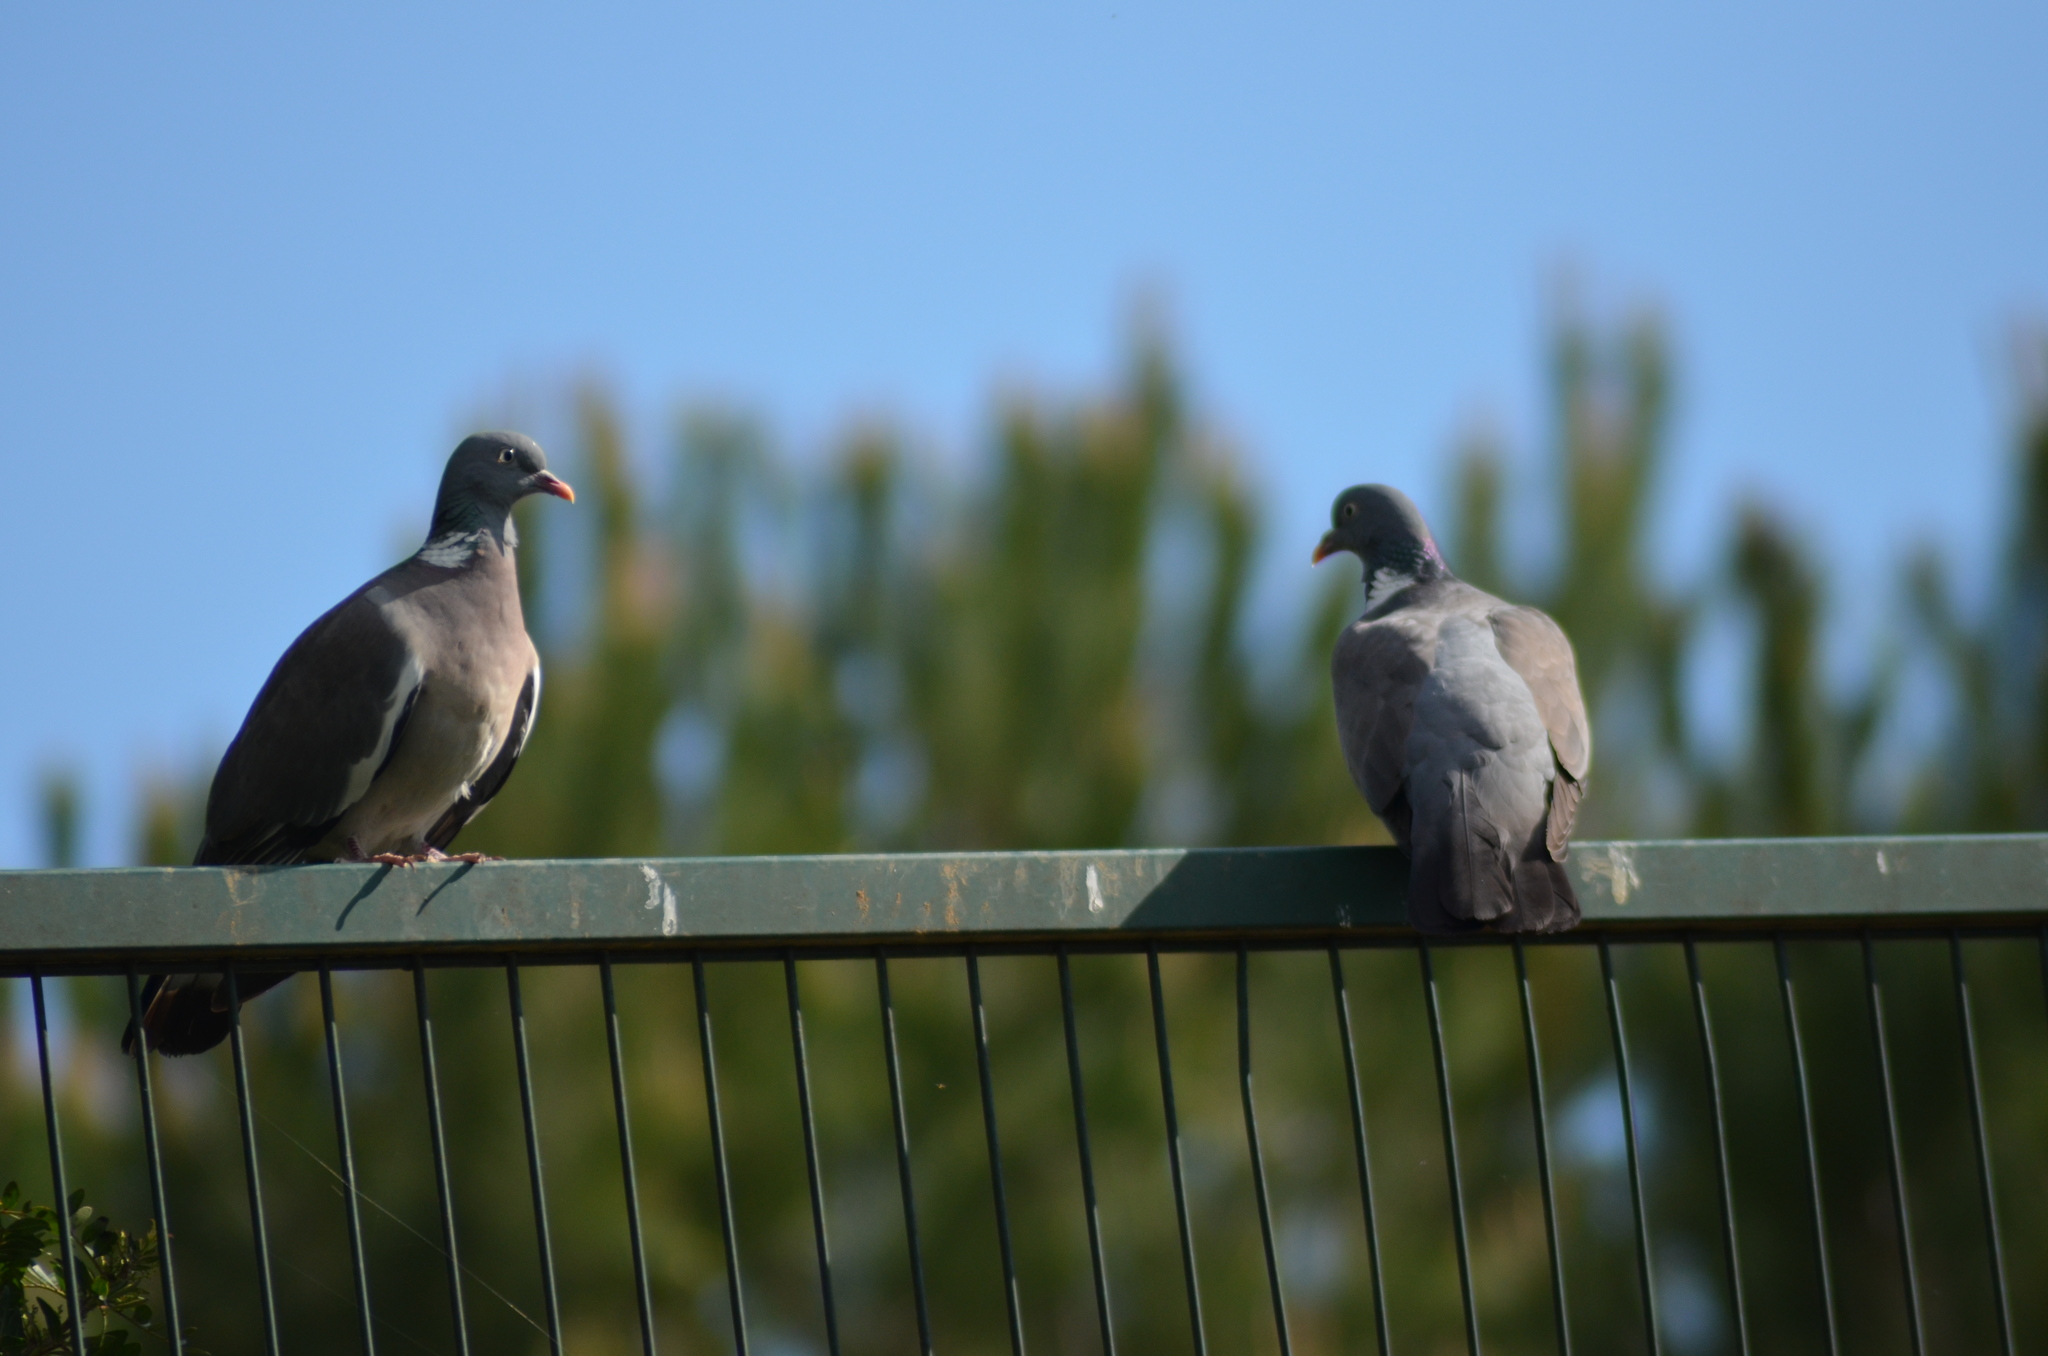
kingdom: Animalia
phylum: Chordata
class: Aves
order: Columbiformes
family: Columbidae
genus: Columba
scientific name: Columba palumbus
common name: Common wood pigeon
